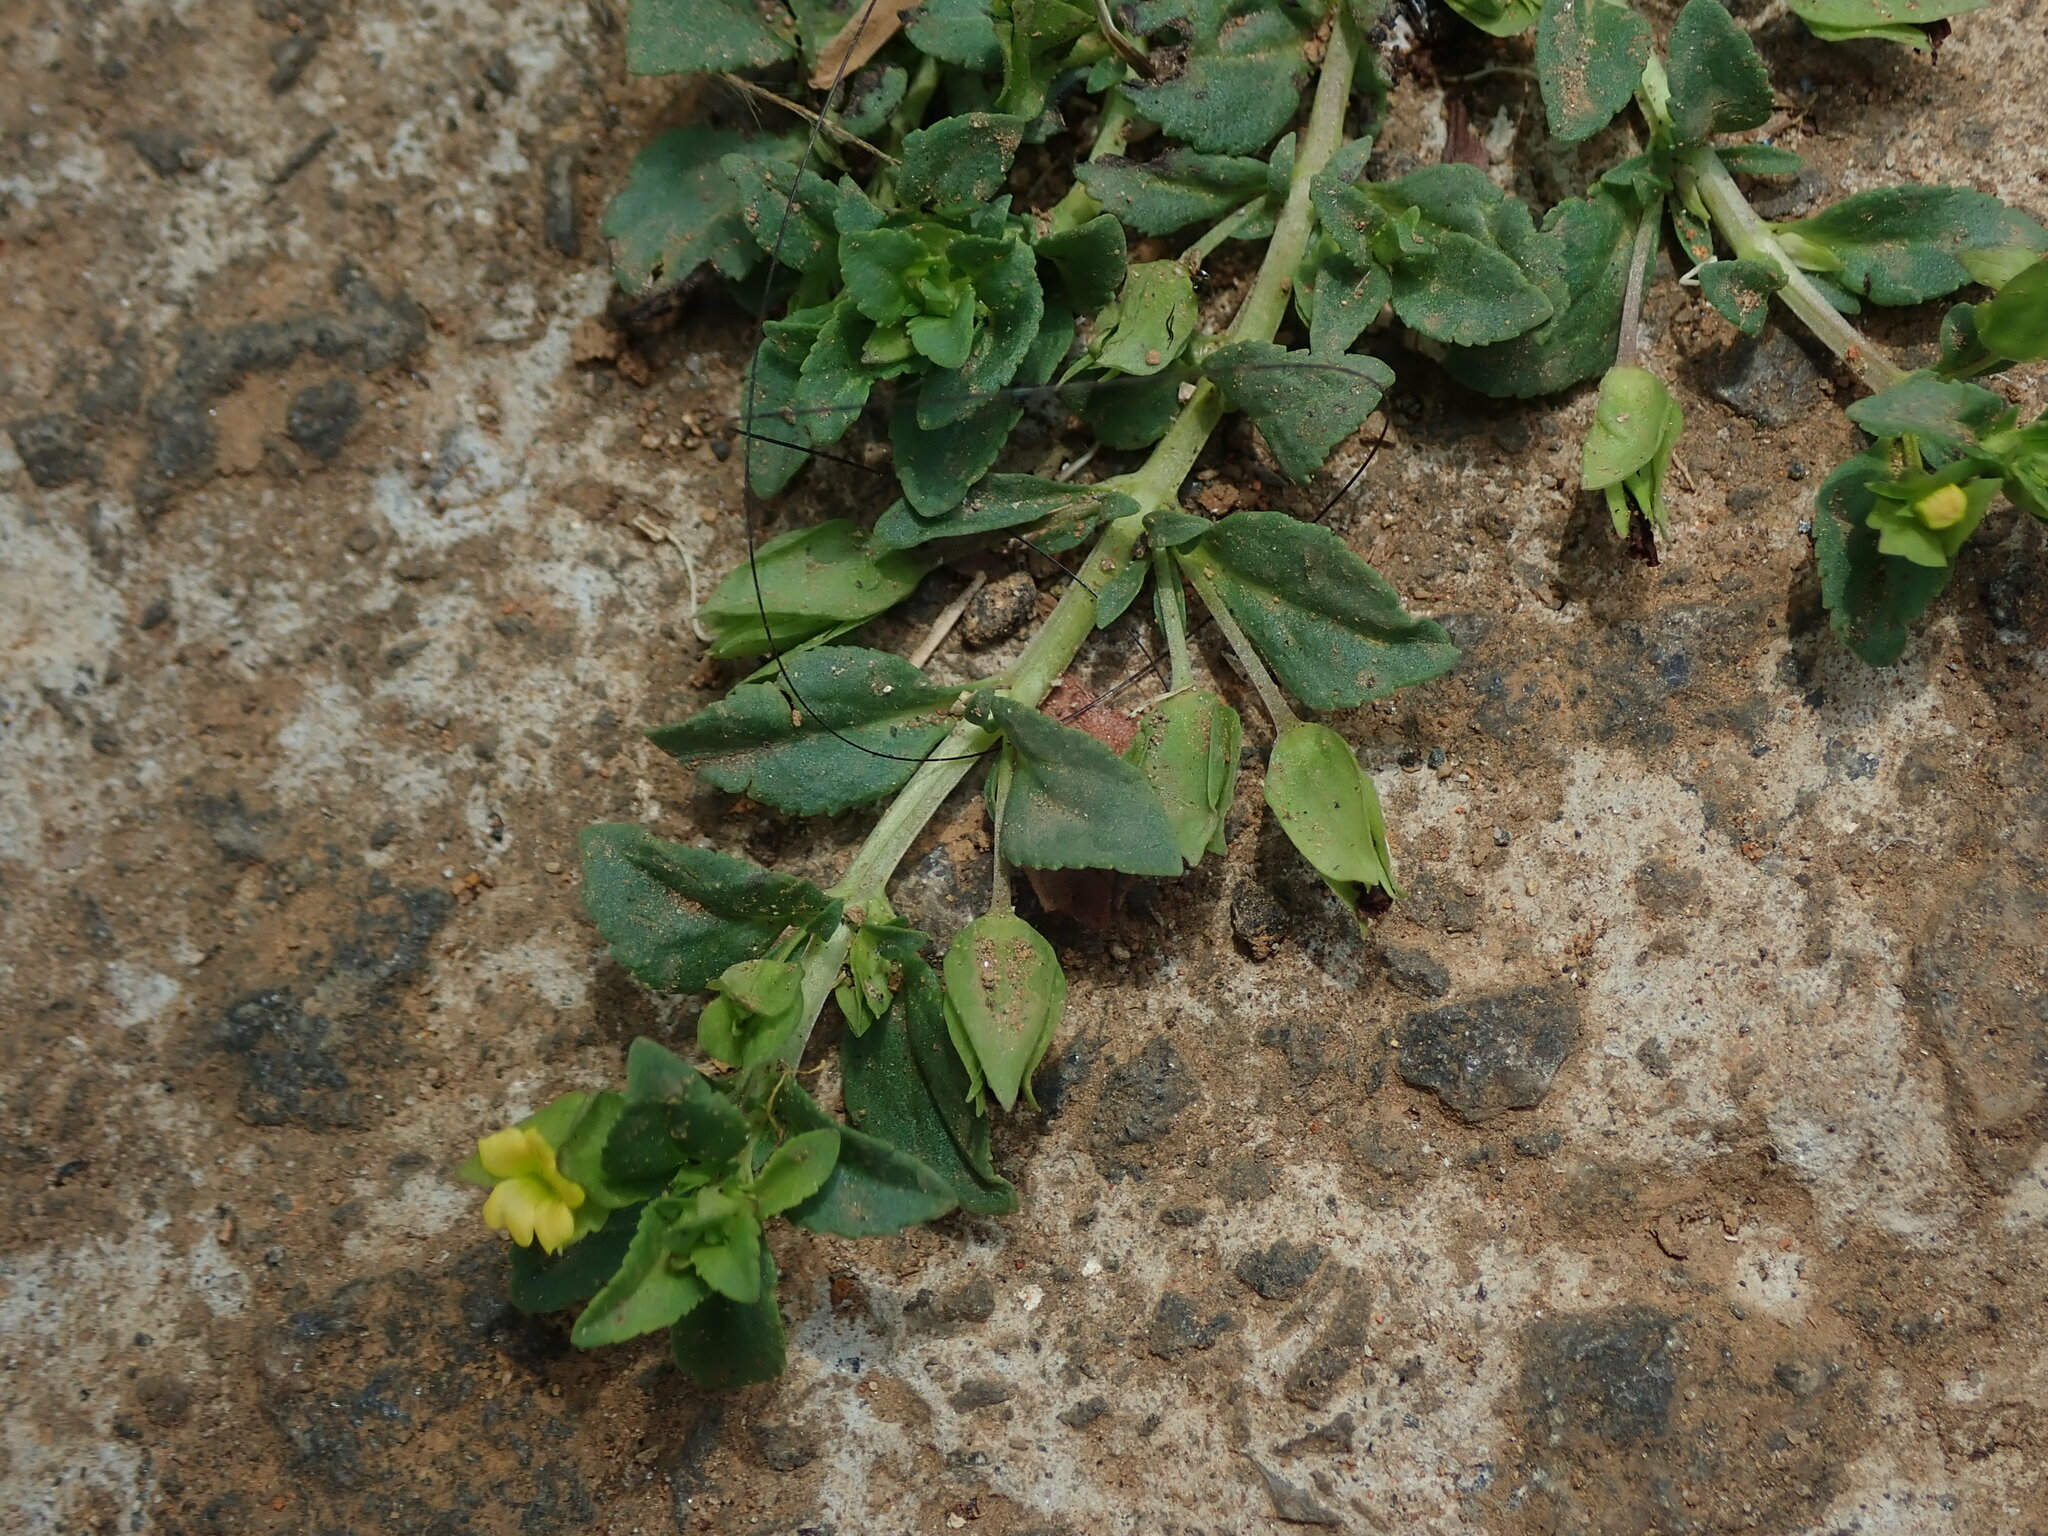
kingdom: Plantae
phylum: Tracheophyta
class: Magnoliopsida
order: Lamiales
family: Plantaginaceae
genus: Mecardonia
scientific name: Mecardonia procumbens
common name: Baby jump-up
